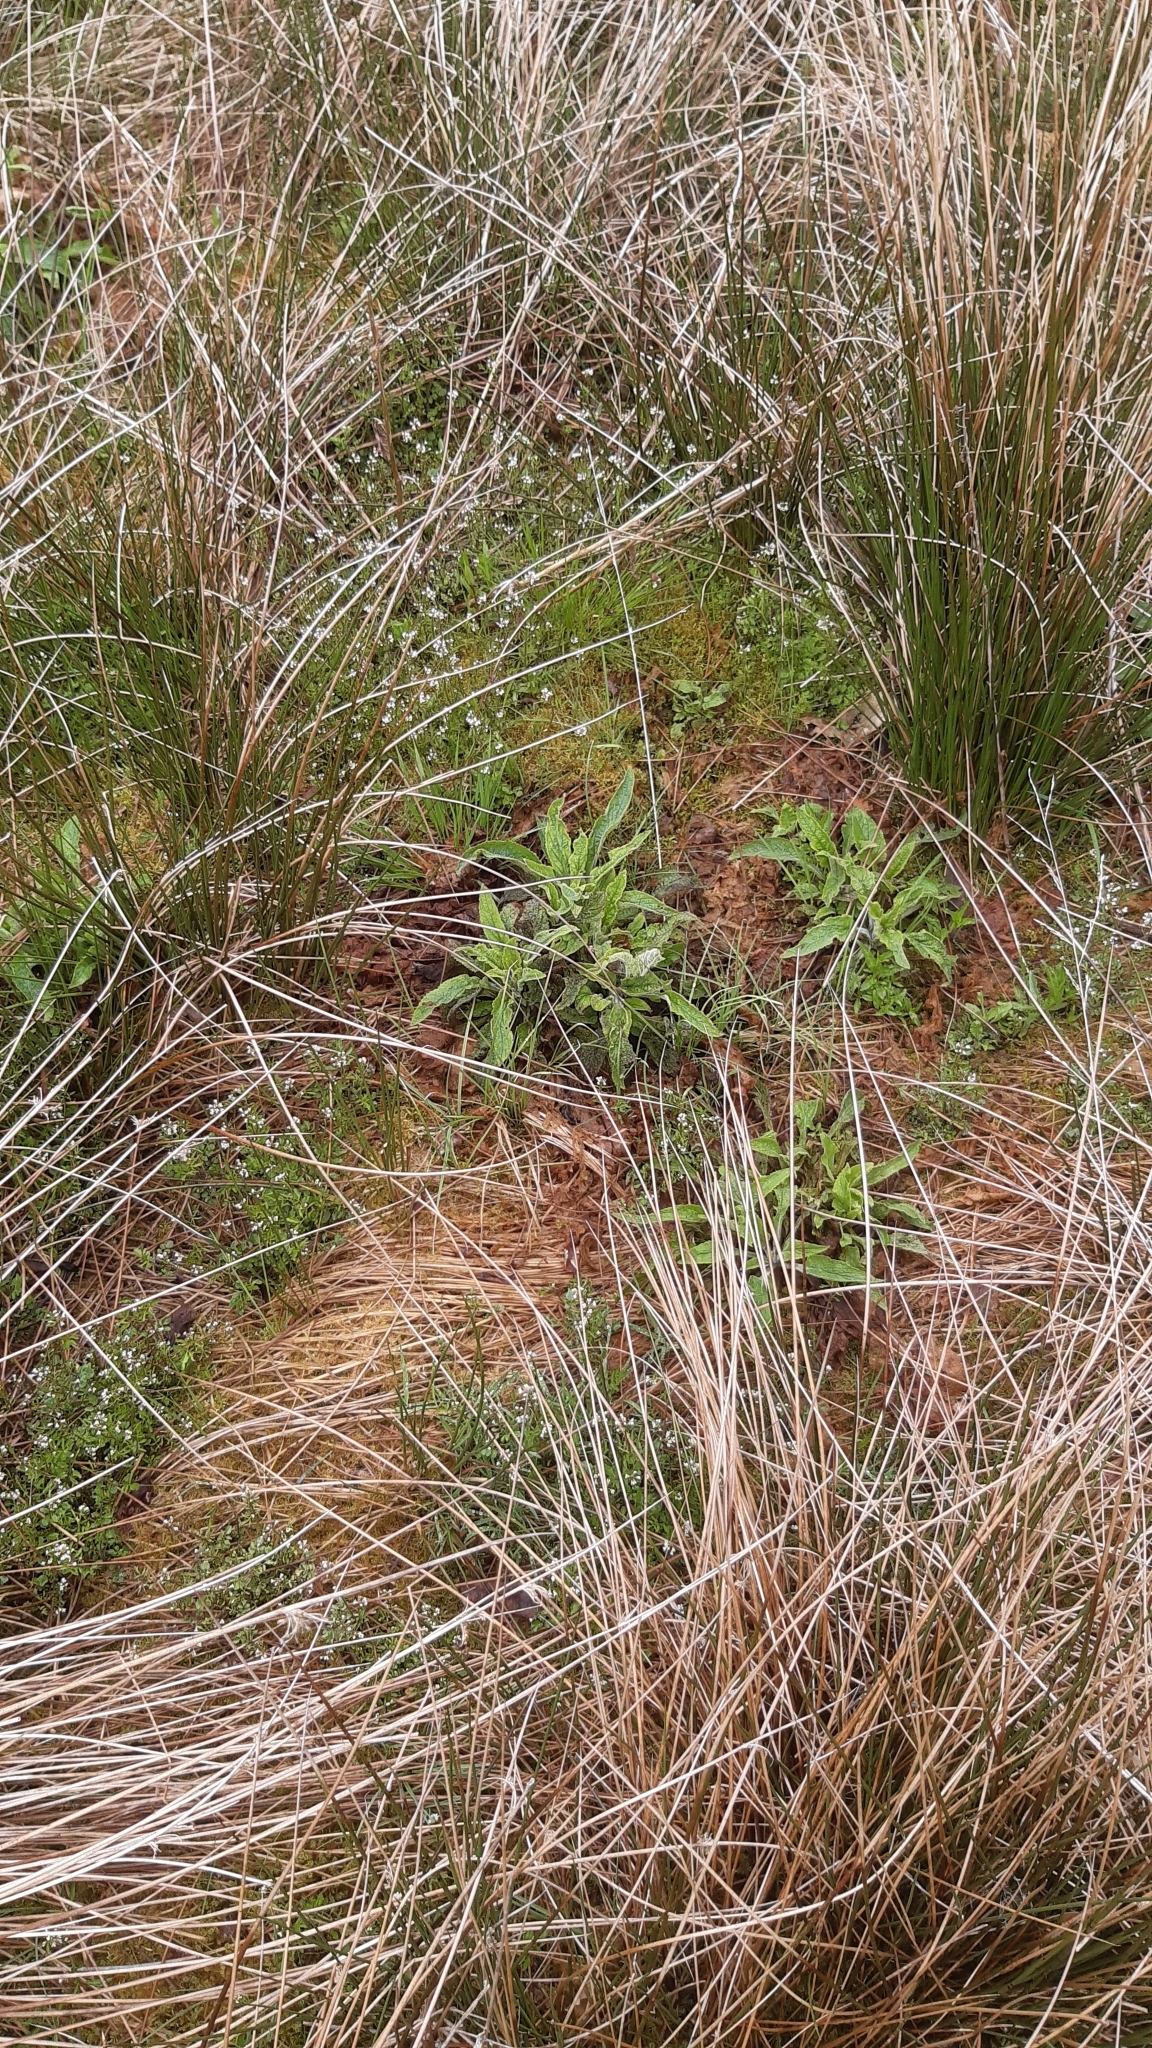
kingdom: Plantae
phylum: Tracheophyta
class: Magnoliopsida
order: Lamiales
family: Plantaginaceae
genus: Digitalis
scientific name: Digitalis purpurea
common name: Foxglove
